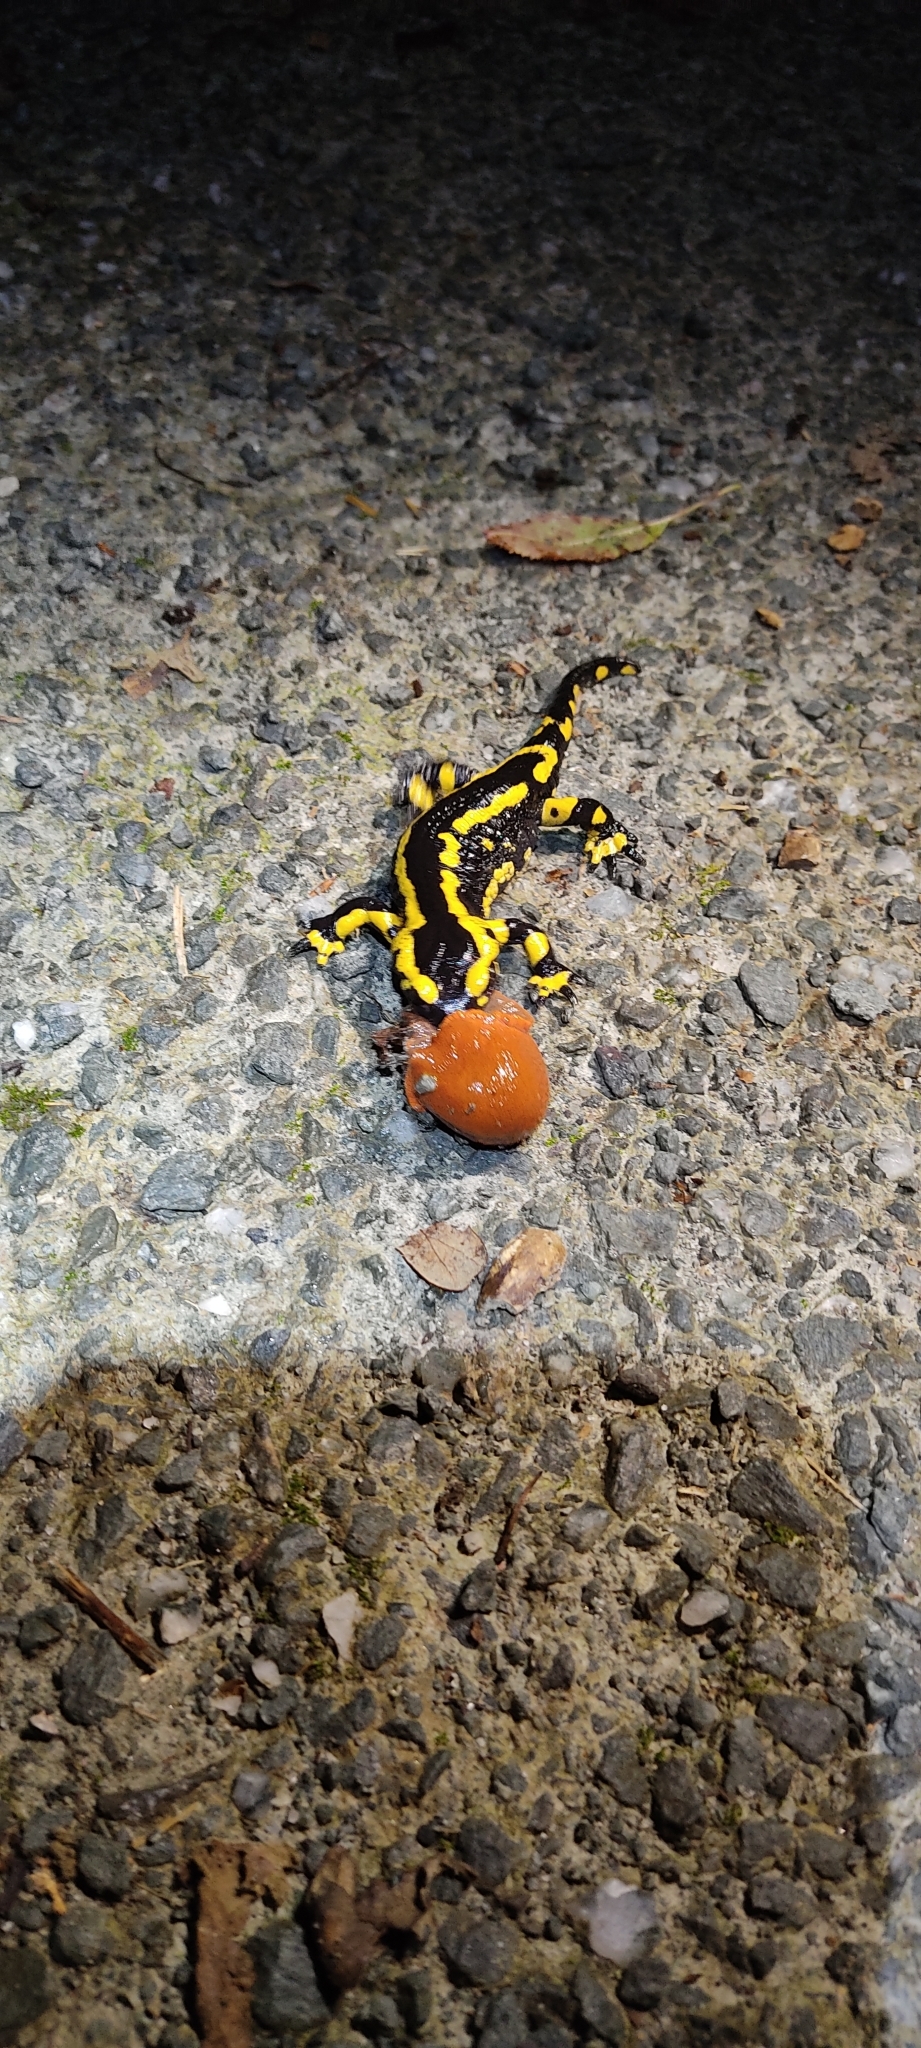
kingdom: Animalia
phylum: Chordata
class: Amphibia
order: Caudata
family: Salamandridae
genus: Salamandra
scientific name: Salamandra salamandra
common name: Fire salamander
